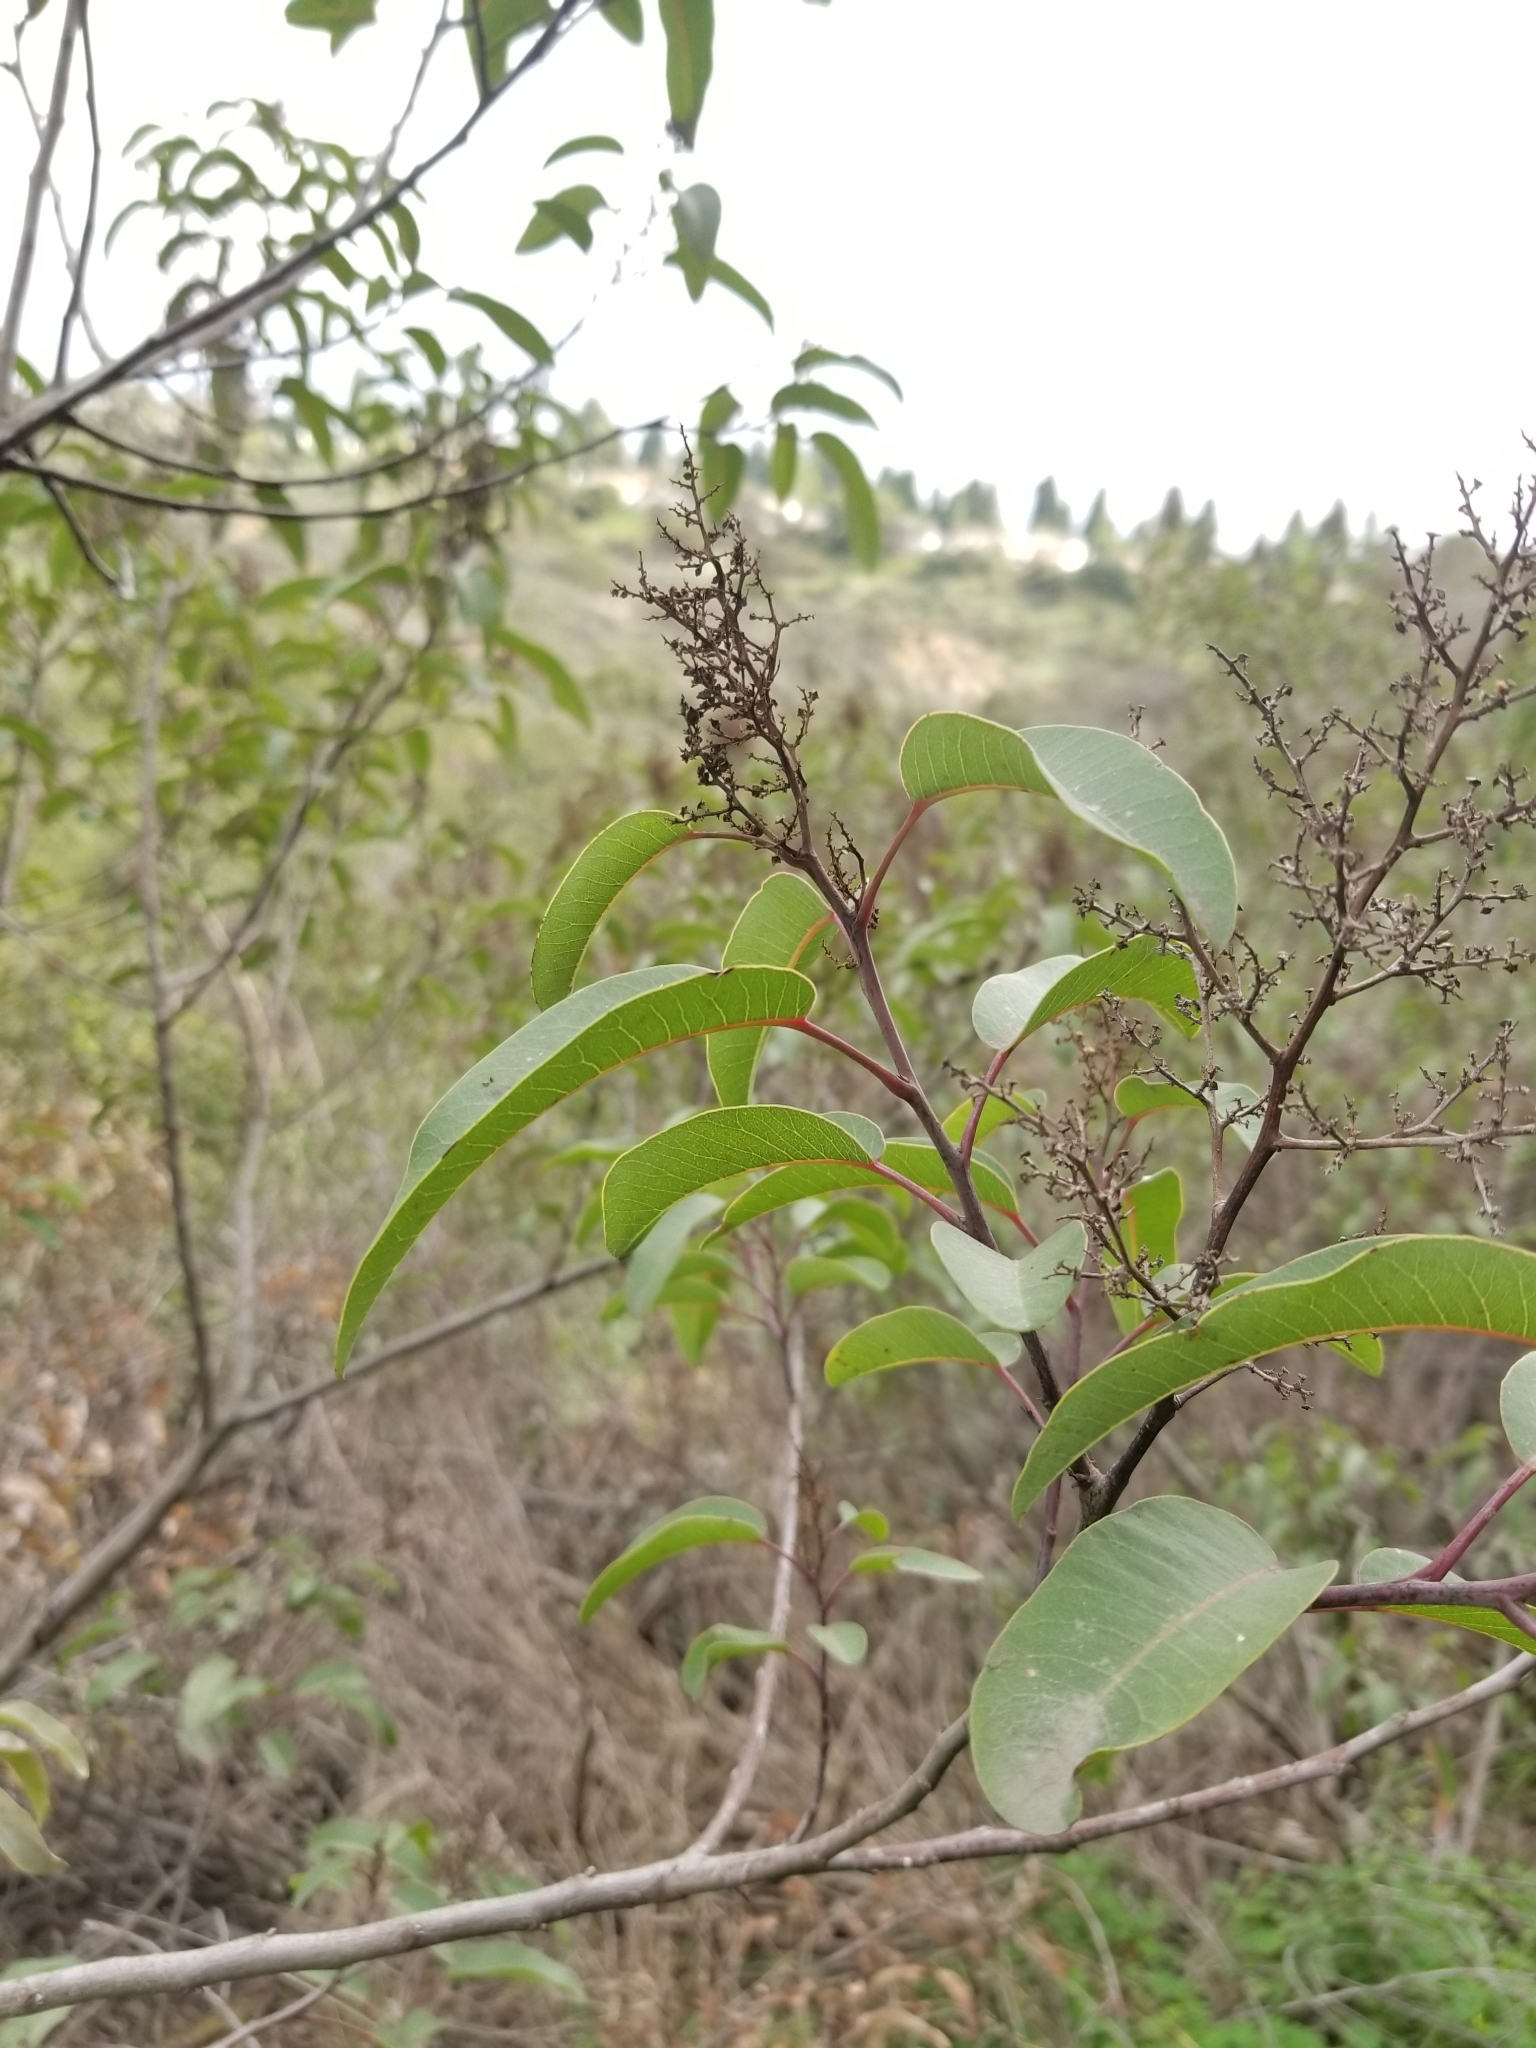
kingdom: Plantae
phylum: Tracheophyta
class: Magnoliopsida
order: Sapindales
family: Anacardiaceae
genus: Malosma
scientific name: Malosma laurina
